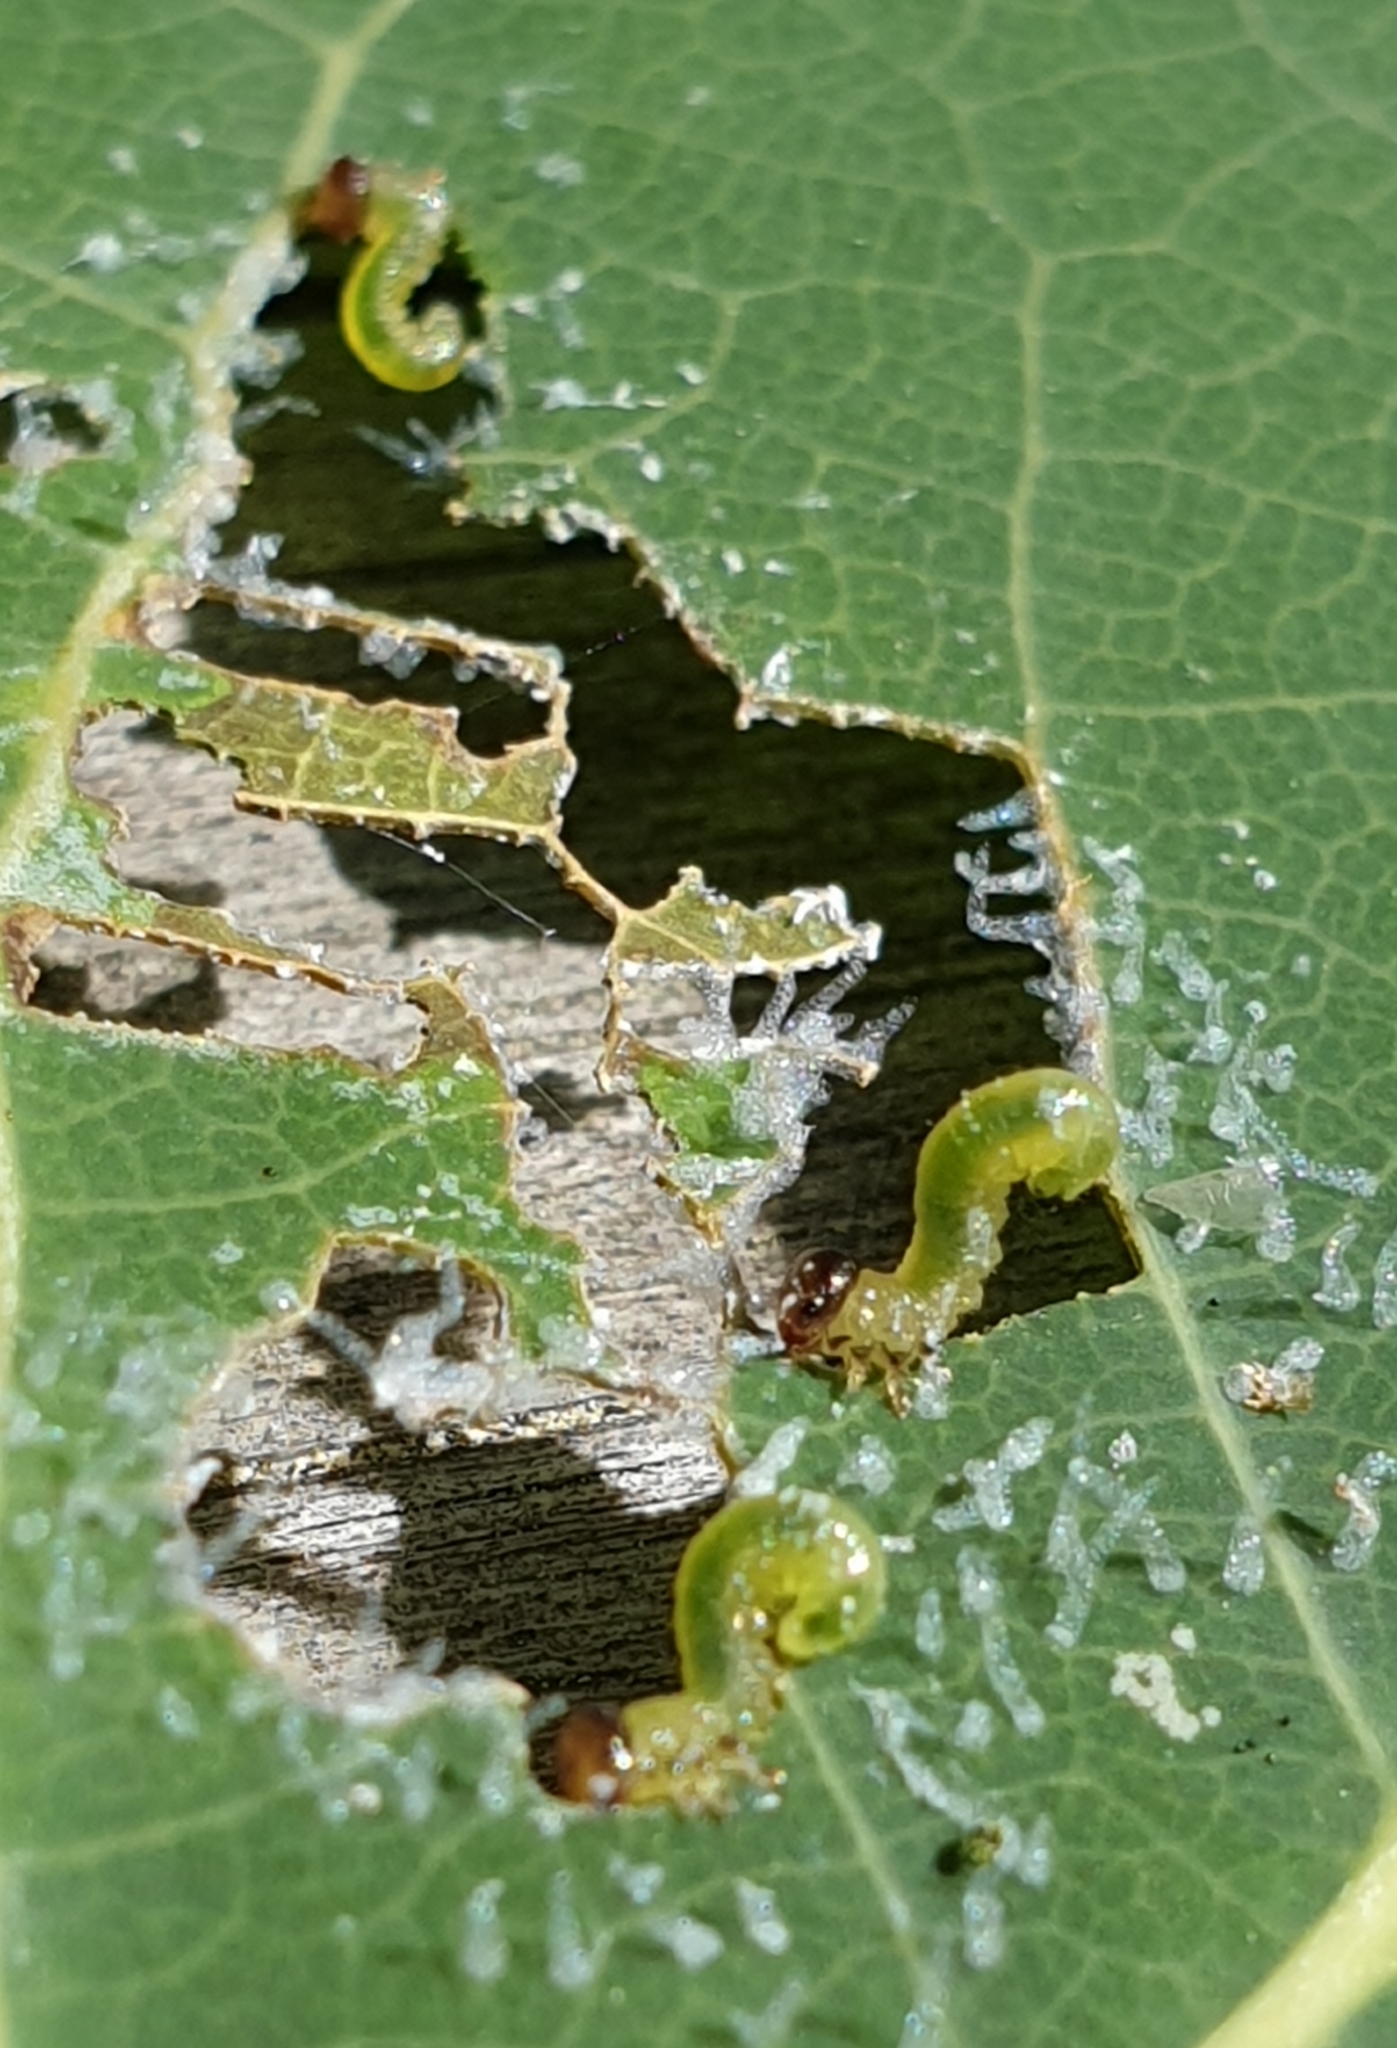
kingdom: Animalia
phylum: Arthropoda
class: Insecta
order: Hymenoptera
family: Tenthredinidae
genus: Stauronematus
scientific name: Stauronematus platycerus
